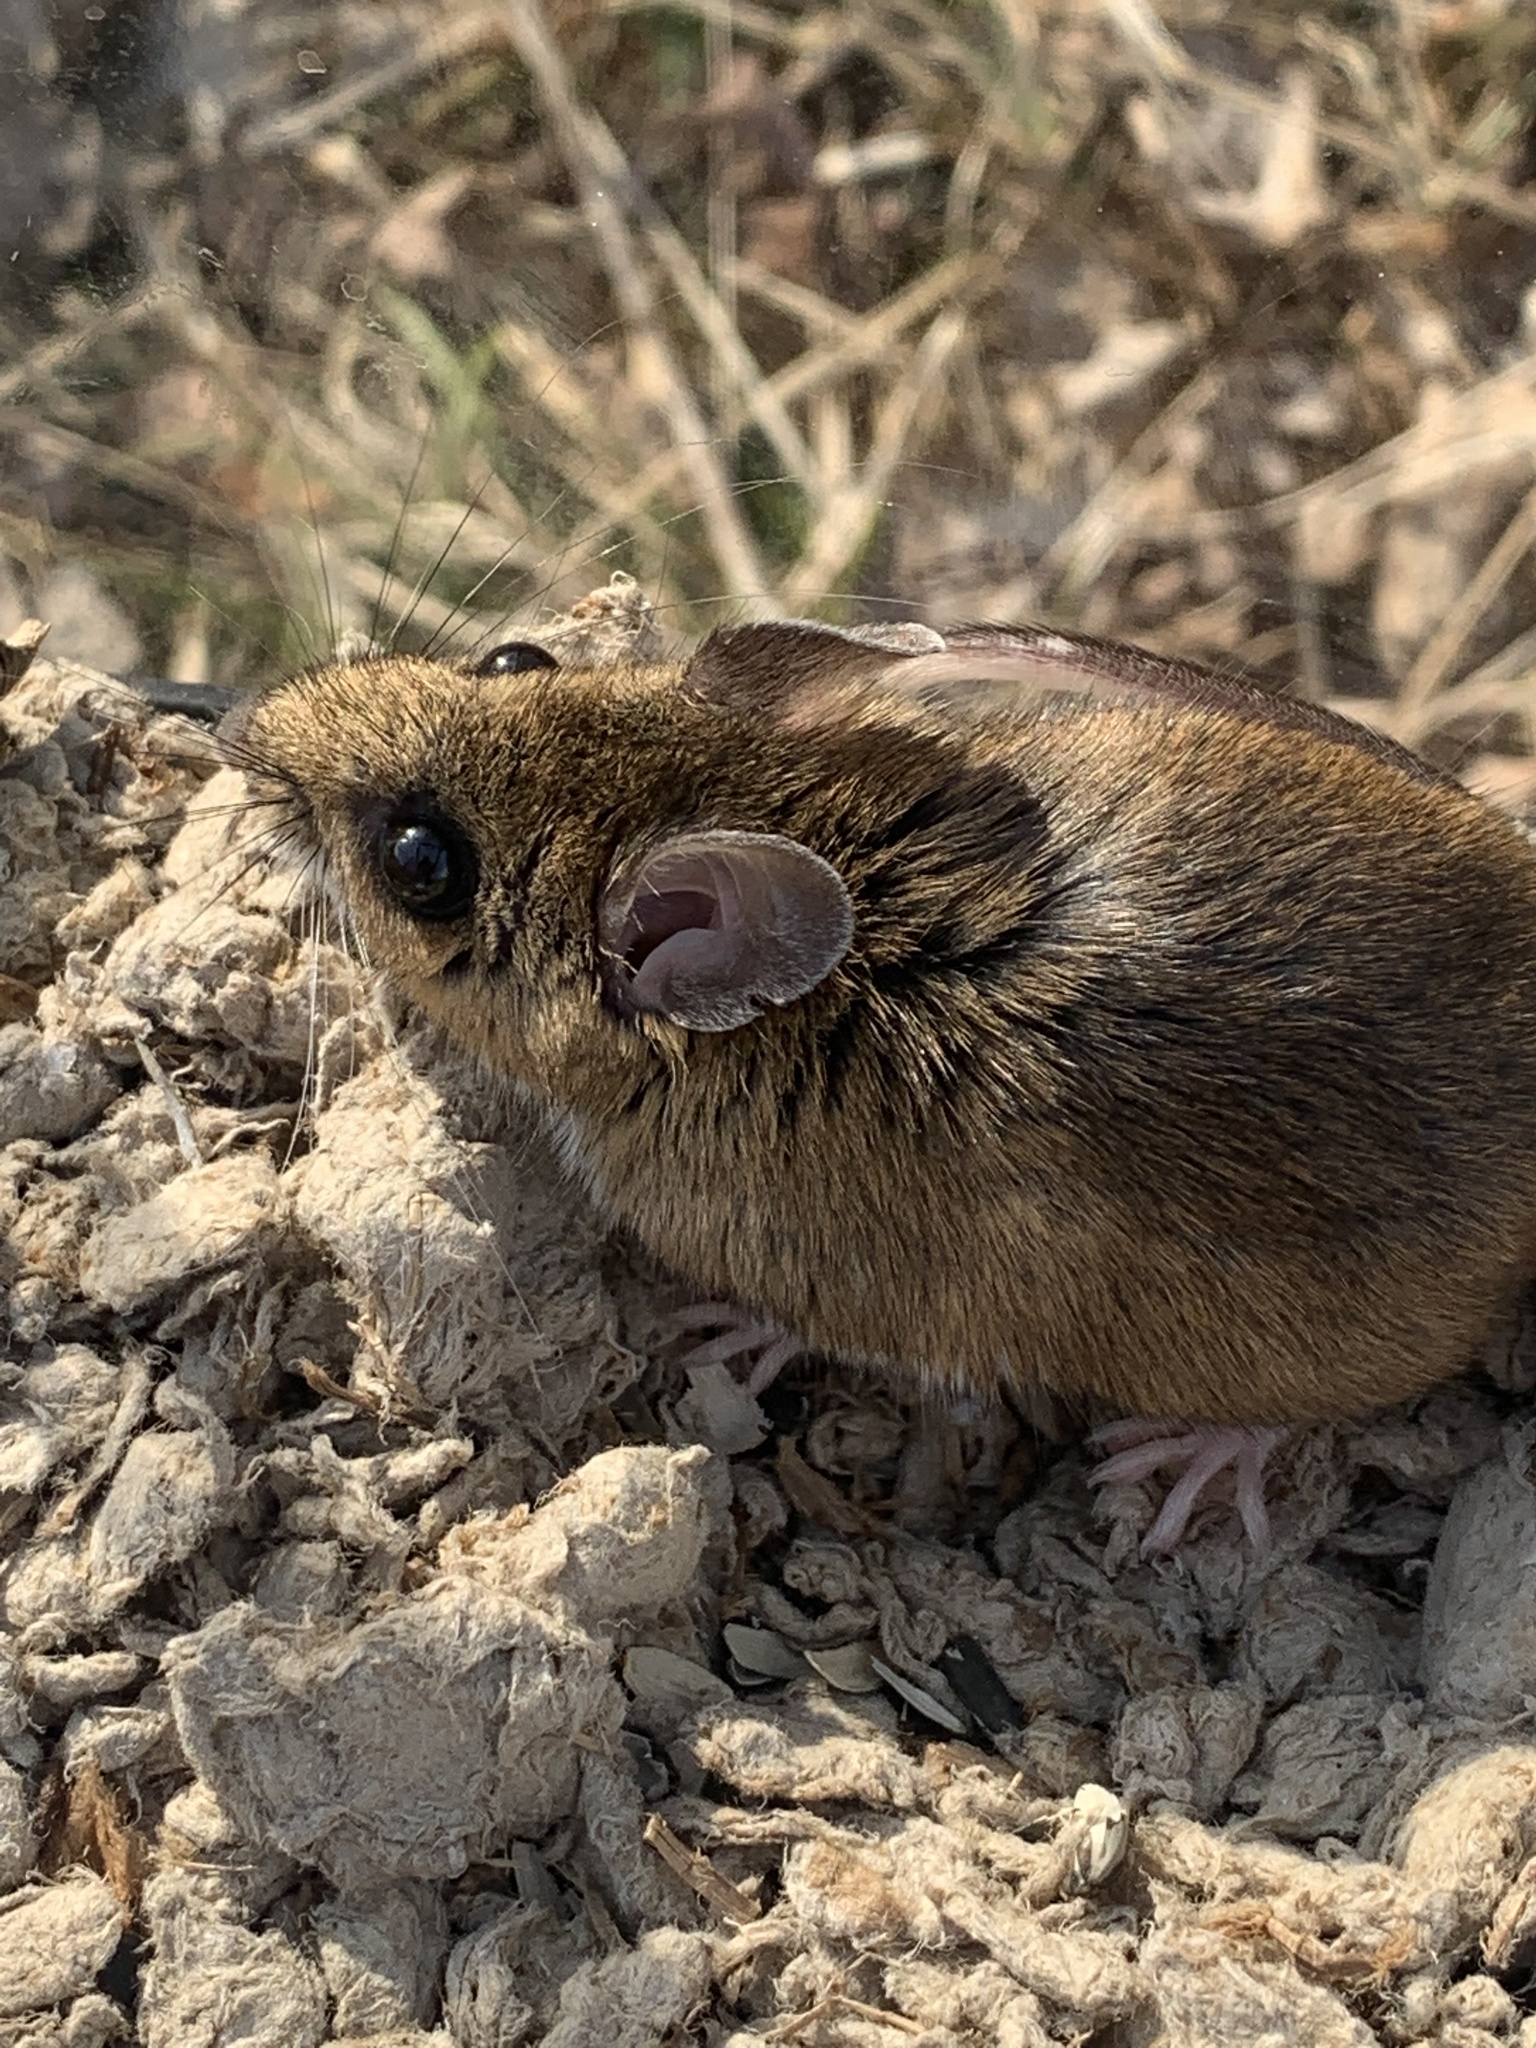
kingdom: Animalia
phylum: Chordata
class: Mammalia
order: Rodentia
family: Cricetidae
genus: Peromyscus
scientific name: Peromyscus maniculatus
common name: Deer mouse
